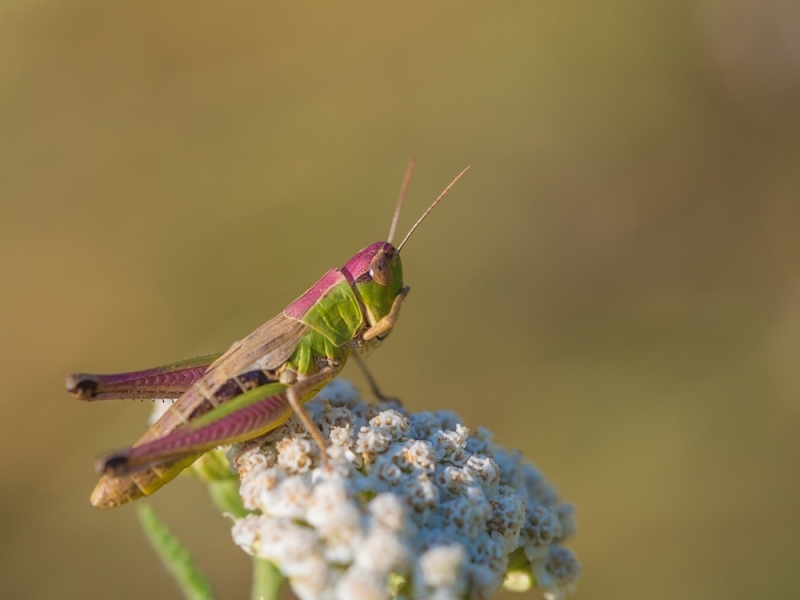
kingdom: Animalia
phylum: Arthropoda
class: Insecta
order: Orthoptera
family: Acrididae
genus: Pseudochorthippus
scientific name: Pseudochorthippus parallelus
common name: Meadow grasshopper
